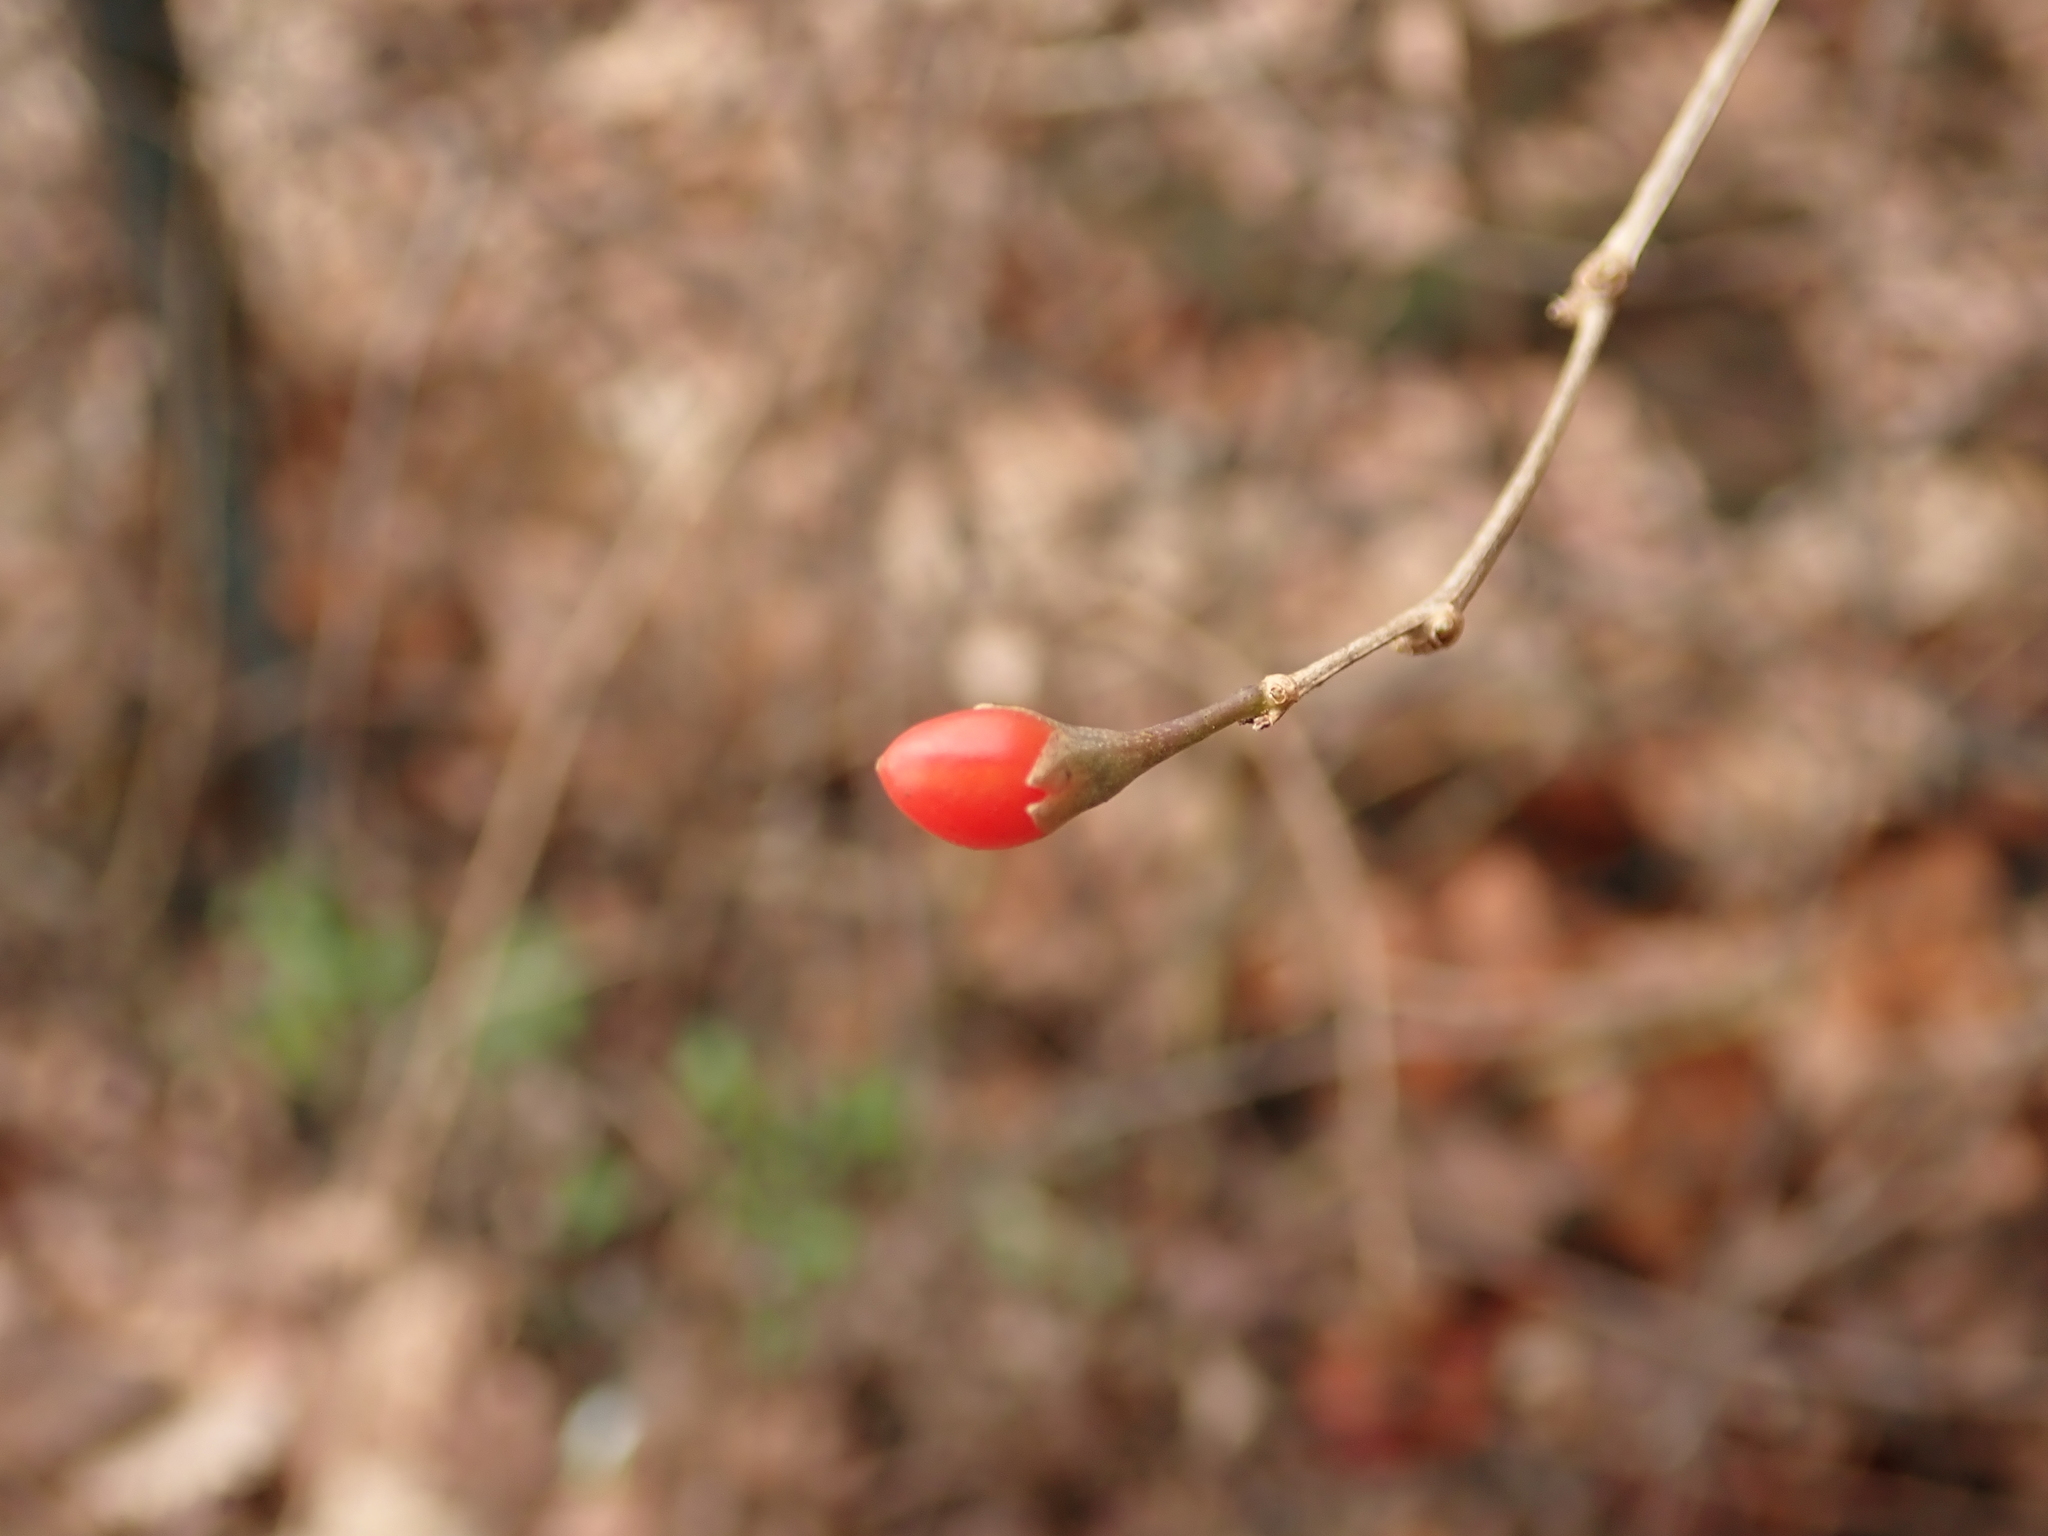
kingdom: Plantae
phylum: Tracheophyta
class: Magnoliopsida
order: Solanales
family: Solanaceae
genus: Lycium
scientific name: Lycium barbarum
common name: Duke of argyll's teaplant
